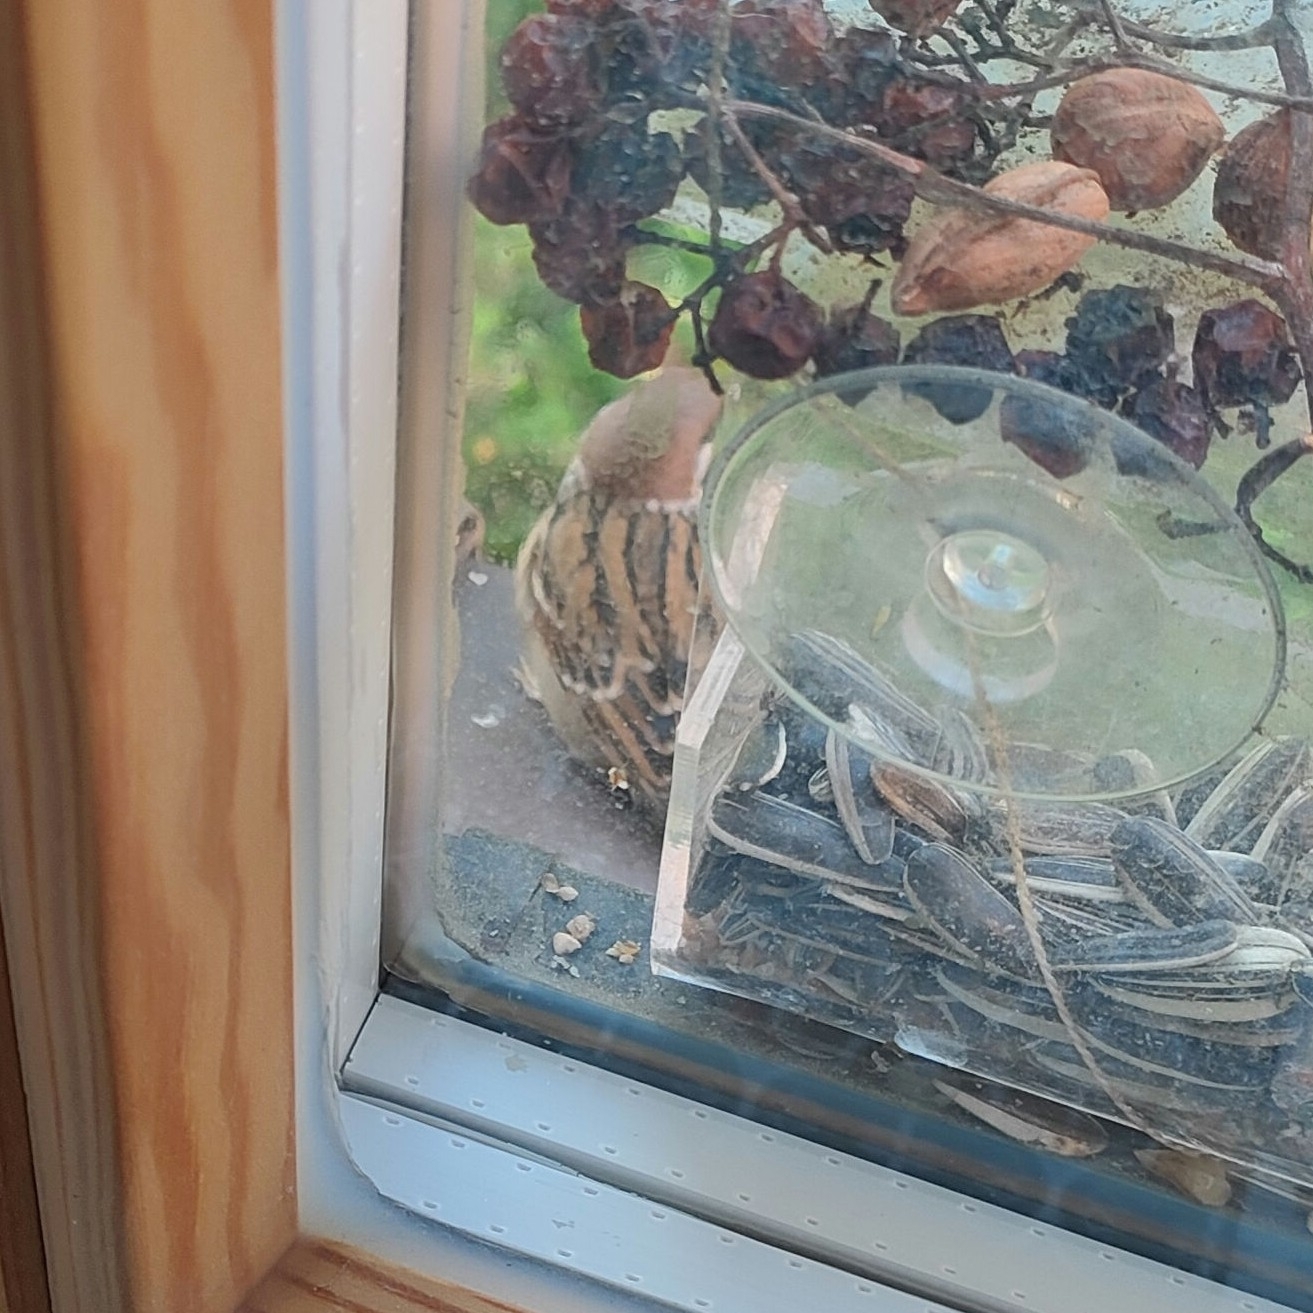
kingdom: Animalia
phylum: Chordata
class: Aves
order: Passeriformes
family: Passeridae
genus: Passer
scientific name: Passer montanus
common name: Eurasian tree sparrow
